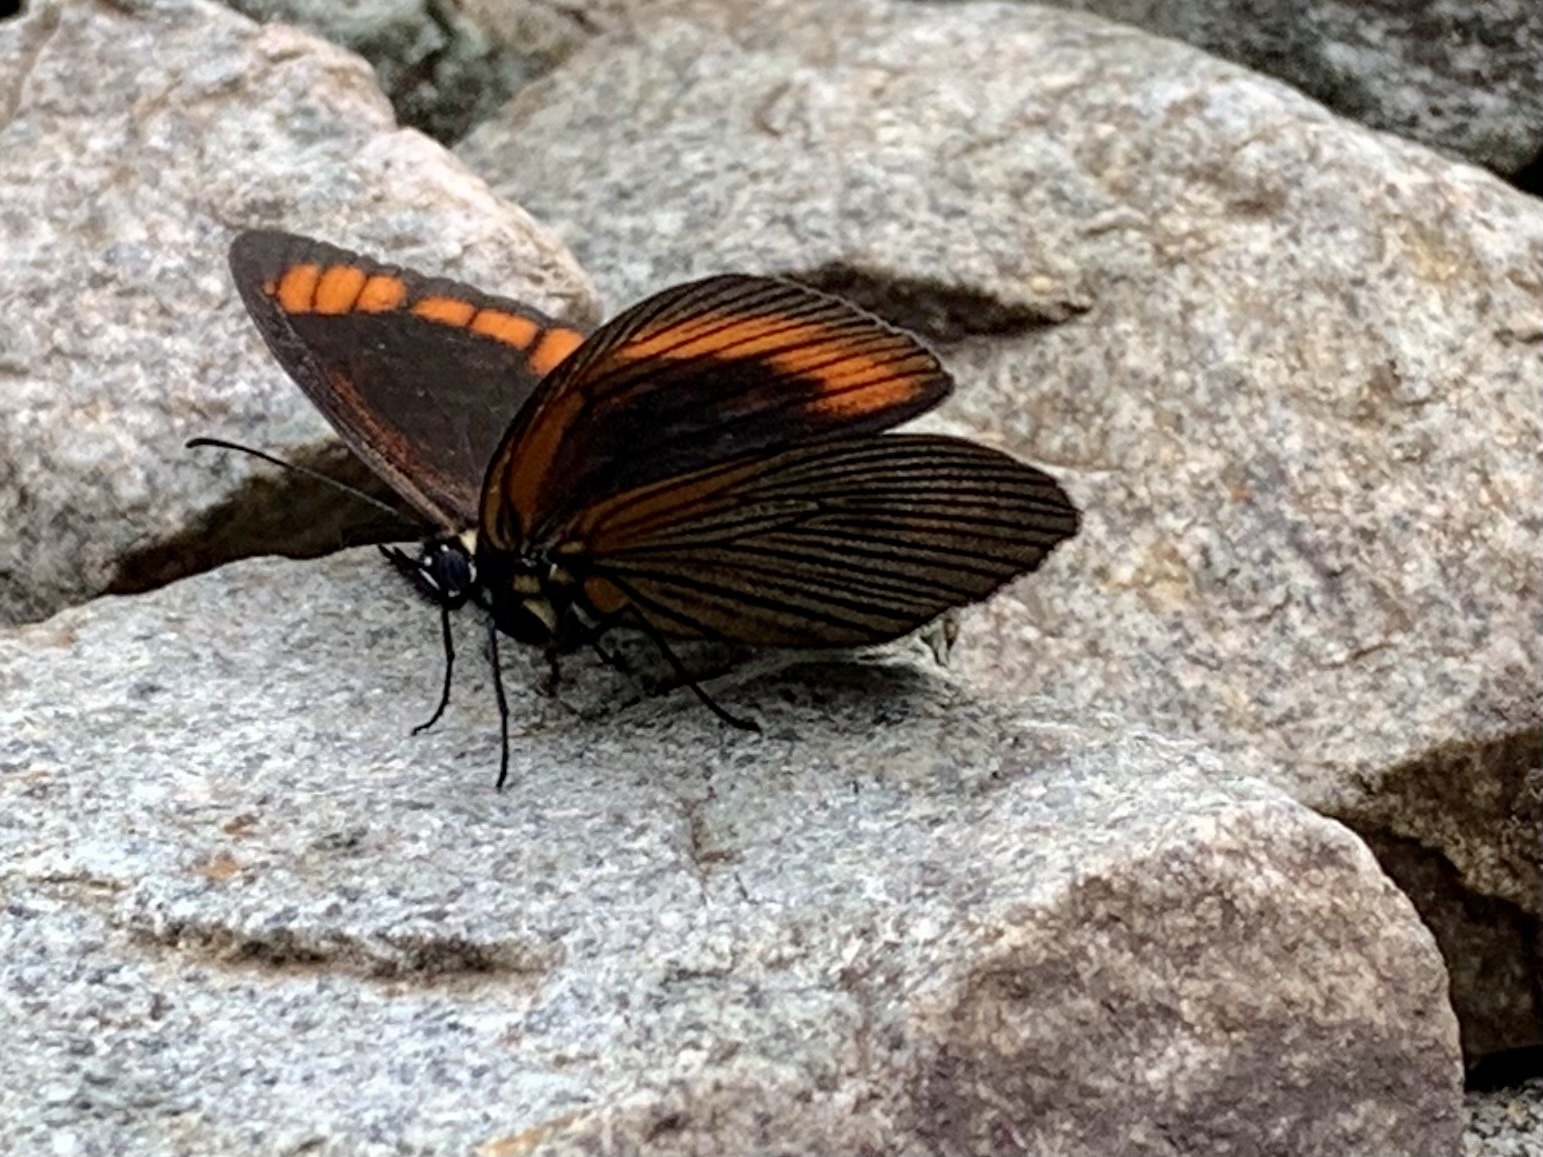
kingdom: Animalia
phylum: Arthropoda
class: Insecta
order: Lepidoptera
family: Nymphalidae
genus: Lymanopoda
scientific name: Lymanopoda acraeida
